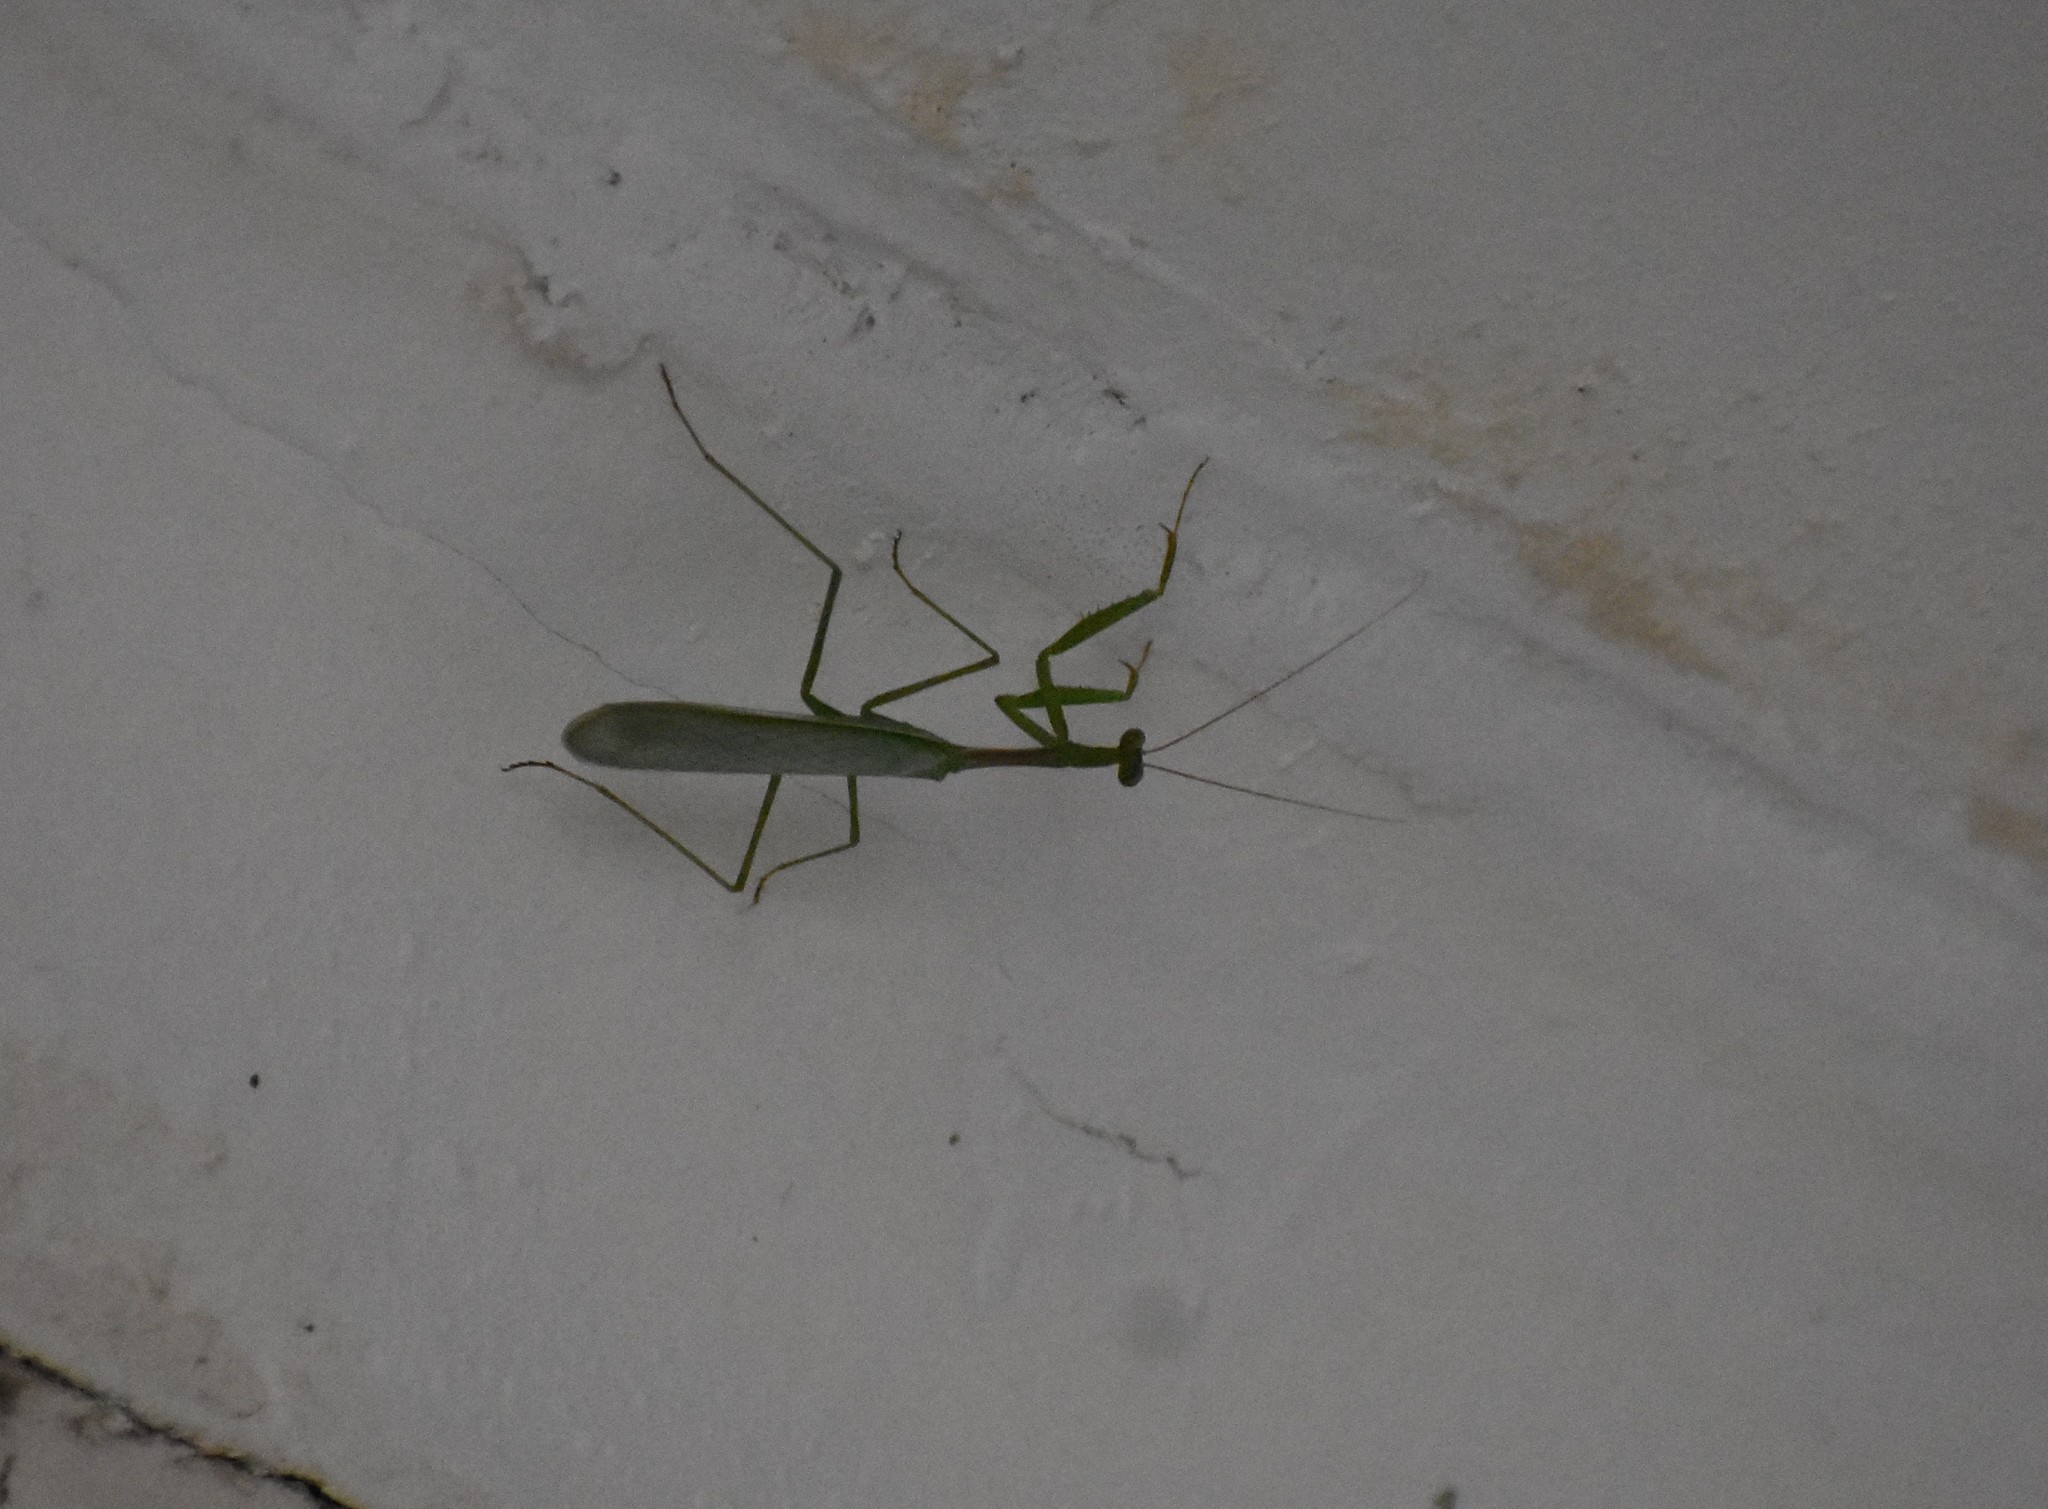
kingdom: Animalia
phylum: Arthropoda
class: Insecta
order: Mantodea
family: Miomantidae
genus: Miomantis
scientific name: Miomantis caffra
